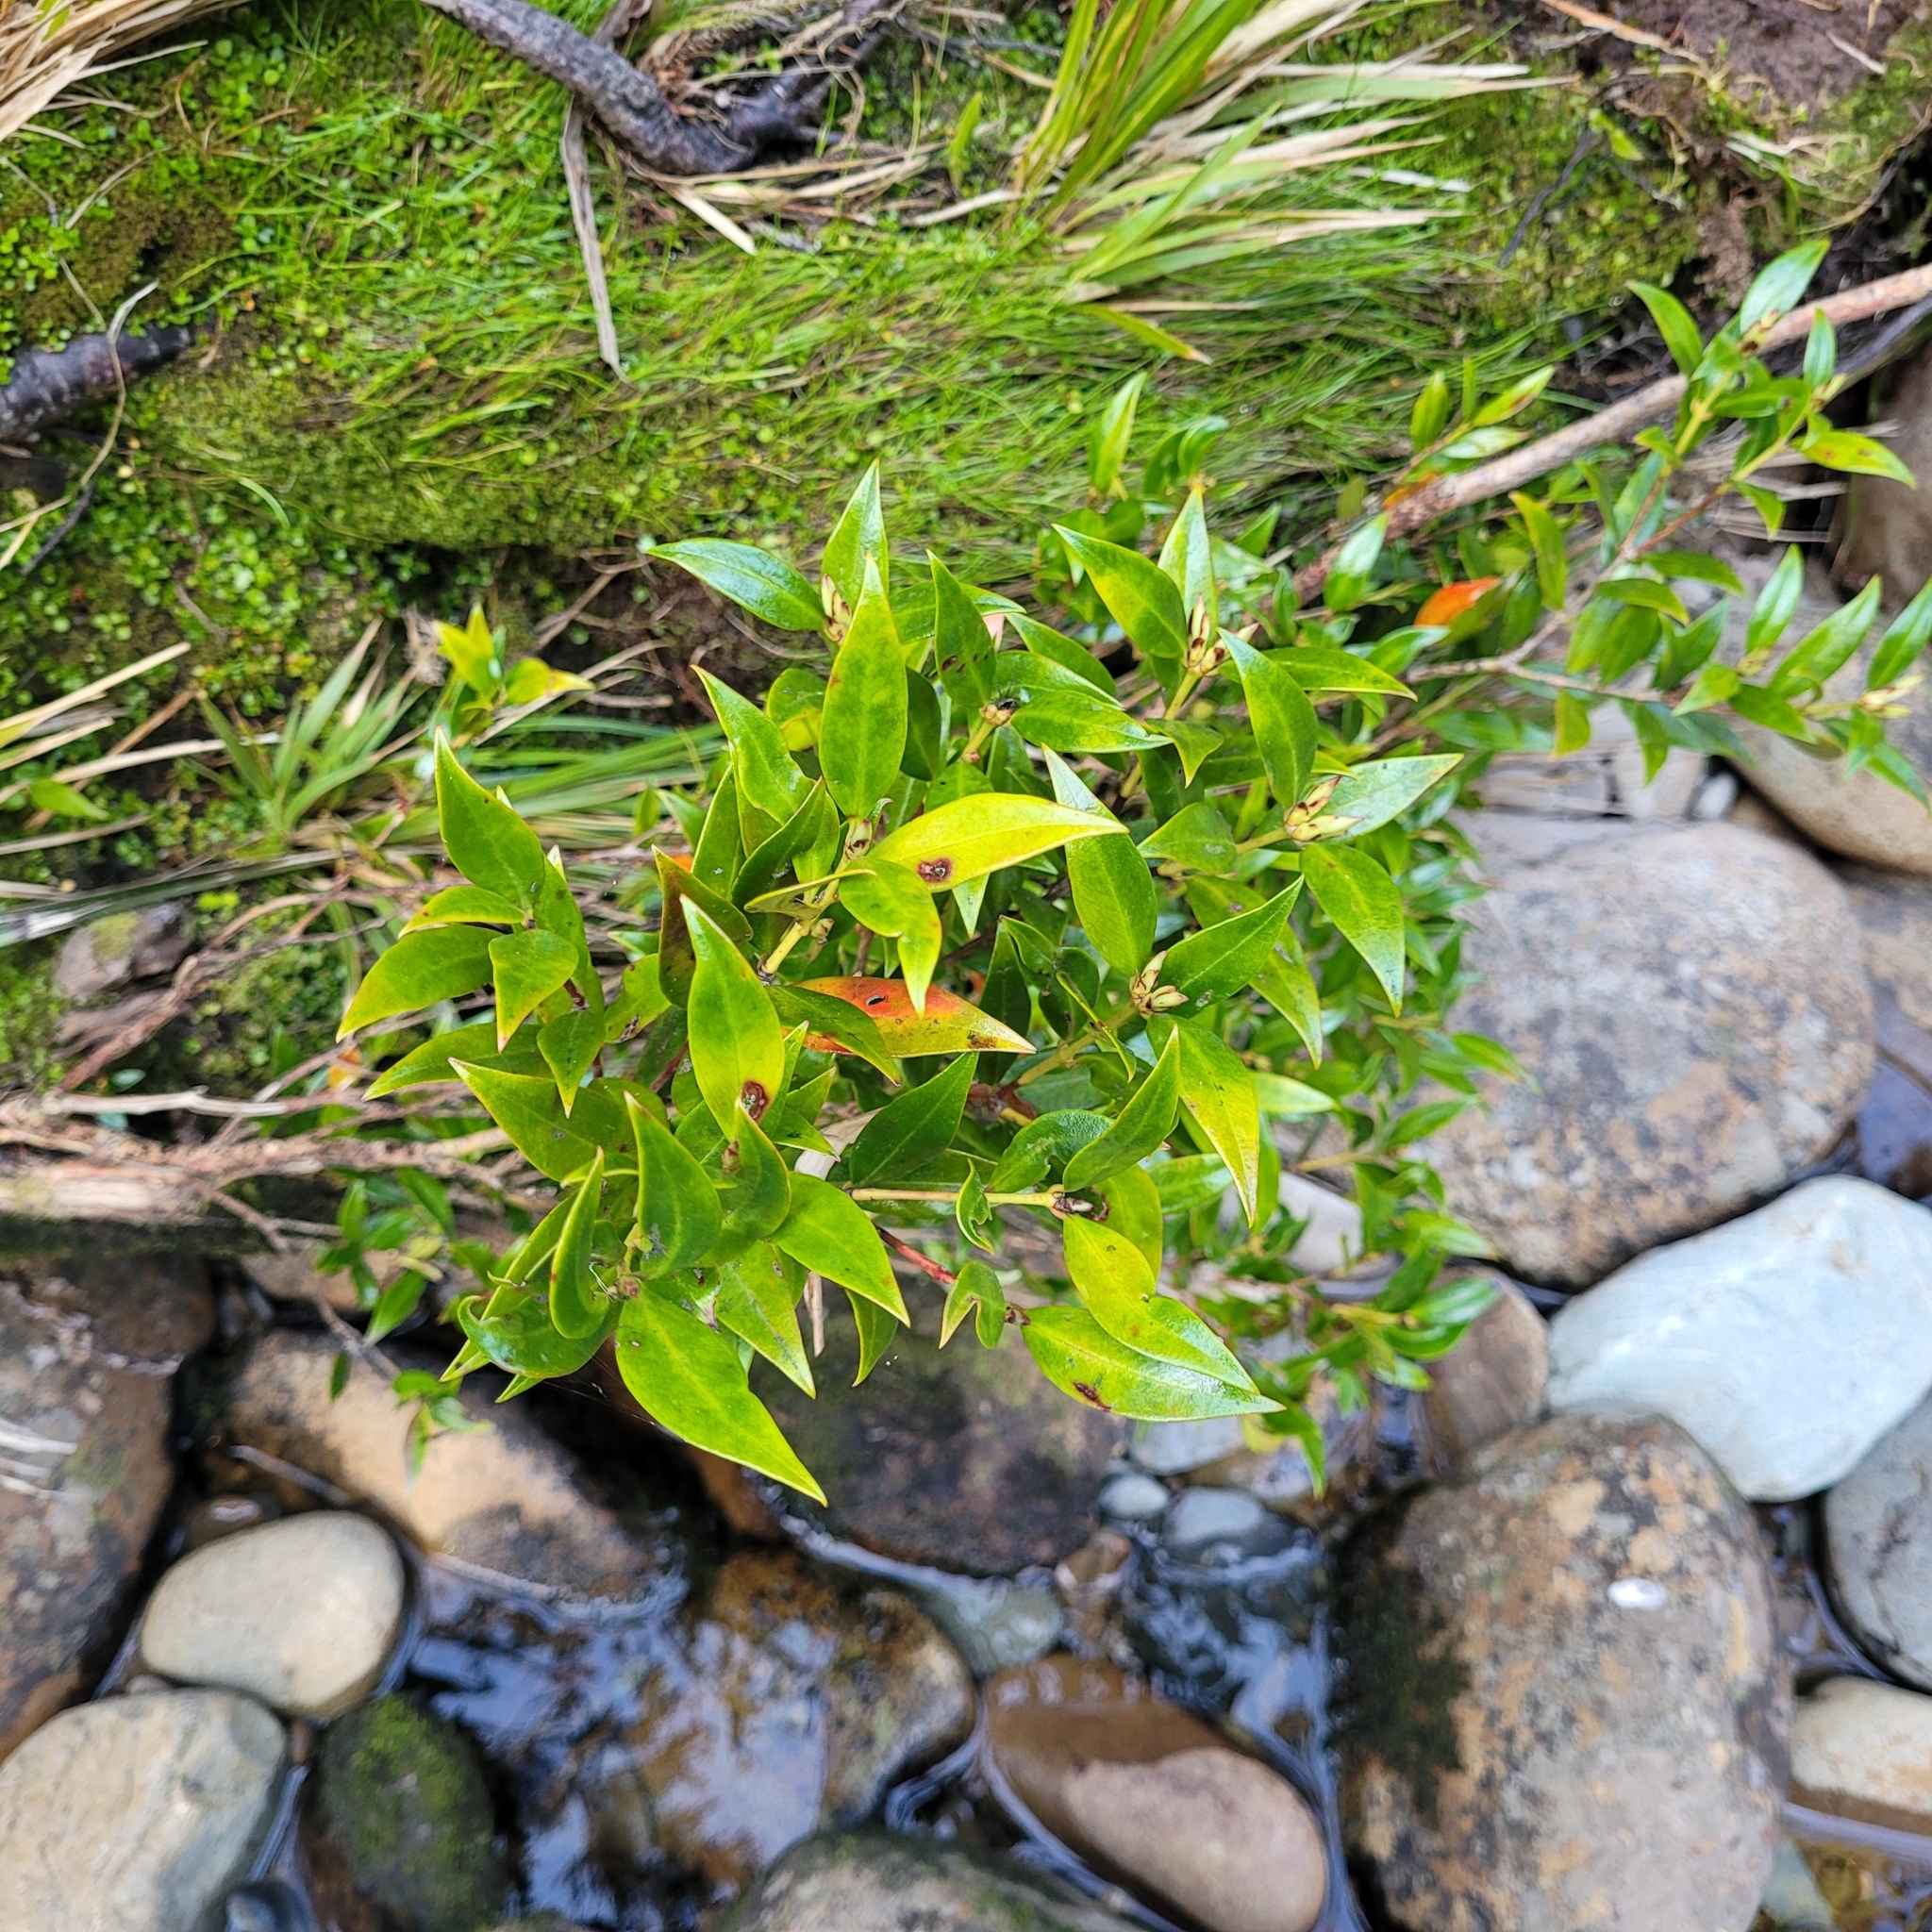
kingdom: Plantae
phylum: Tracheophyta
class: Magnoliopsida
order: Myrtales
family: Myrtaceae
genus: Metrosideros
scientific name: Metrosideros umbellata
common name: Southern rata
